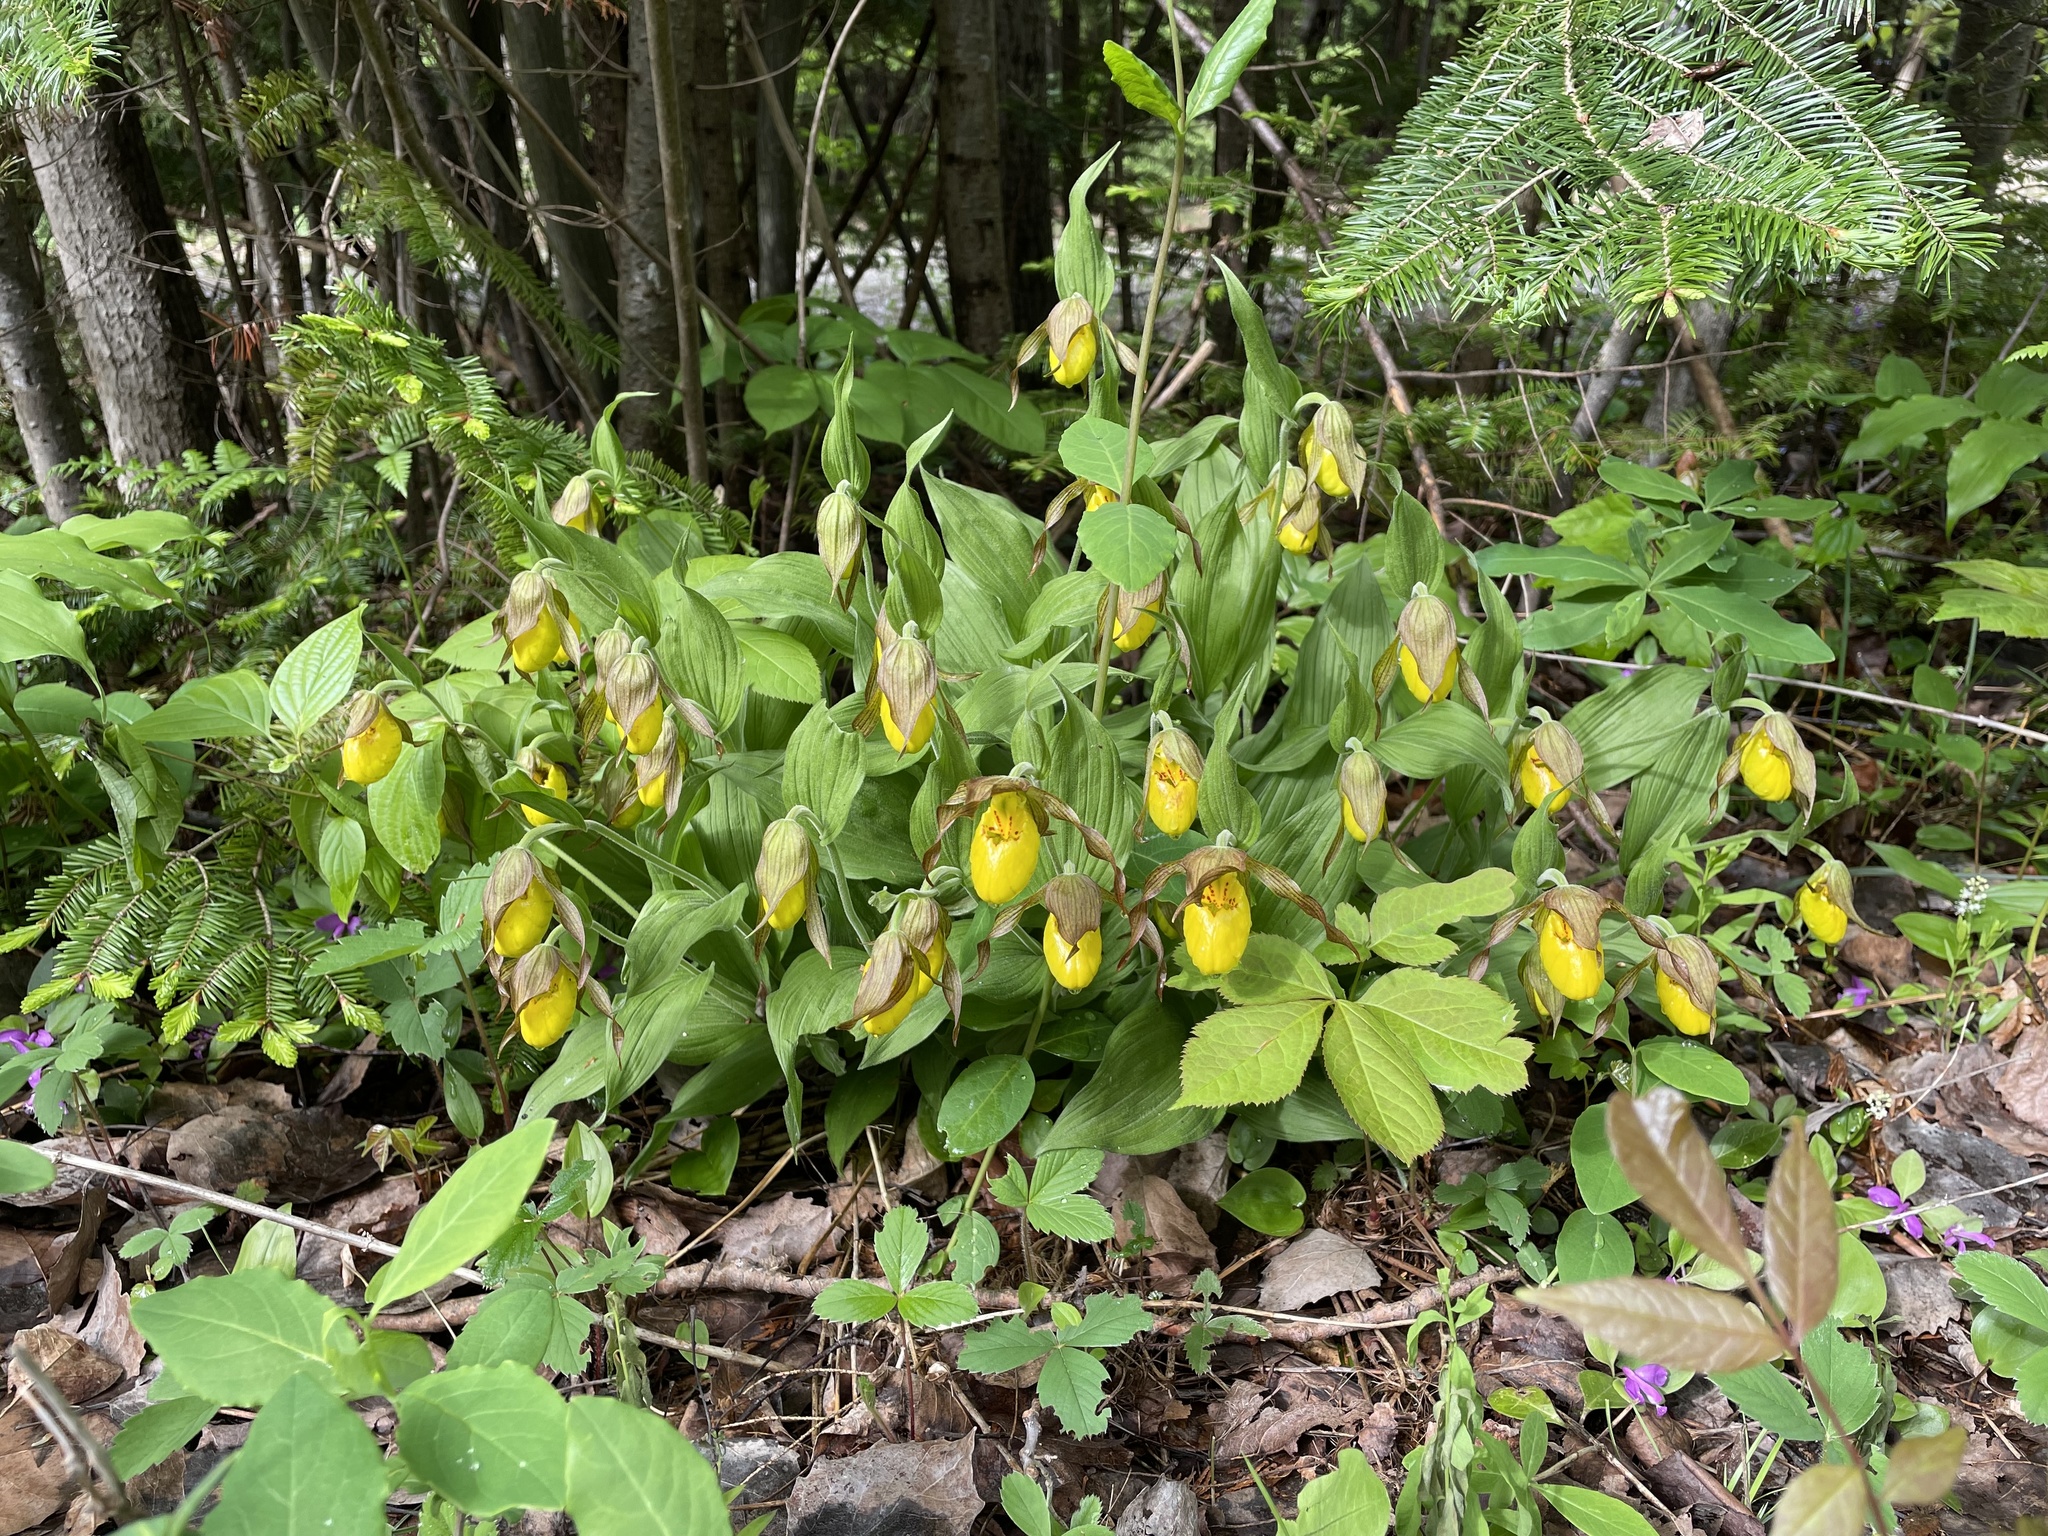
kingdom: Plantae
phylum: Tracheophyta
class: Liliopsida
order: Asparagales
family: Orchidaceae
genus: Cypripedium
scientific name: Cypripedium parviflorum
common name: American yellow lady's-slipper
